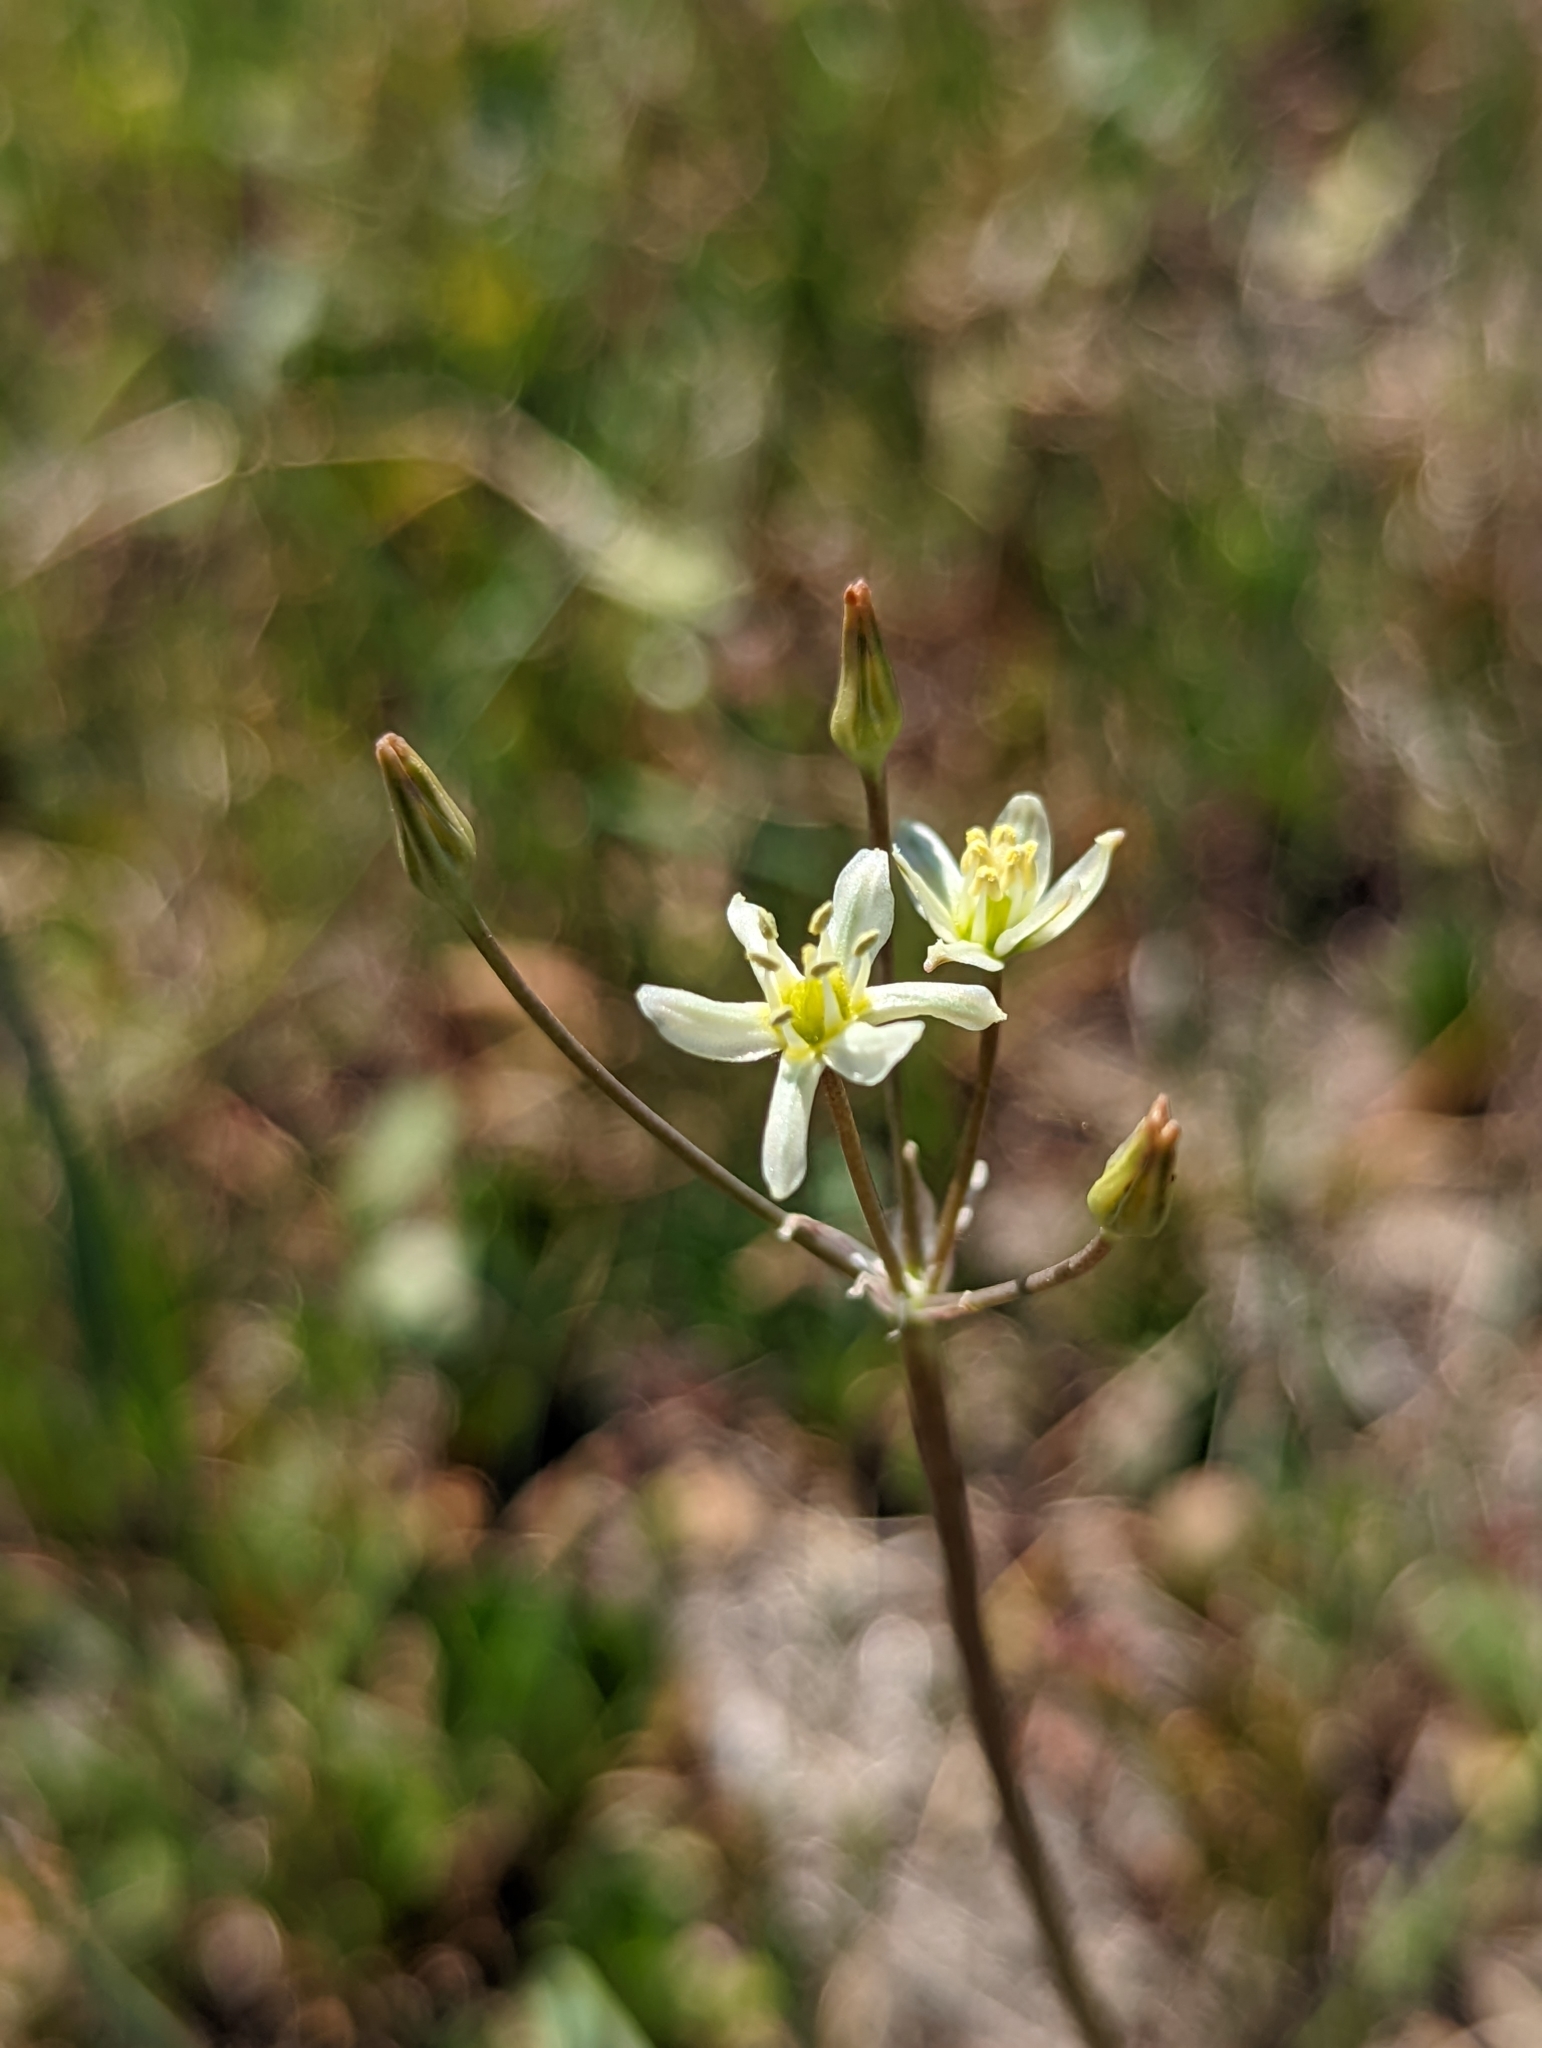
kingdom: Plantae
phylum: Tracheophyta
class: Liliopsida
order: Asparagales
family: Asparagaceae
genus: Muilla
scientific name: Muilla maritima
